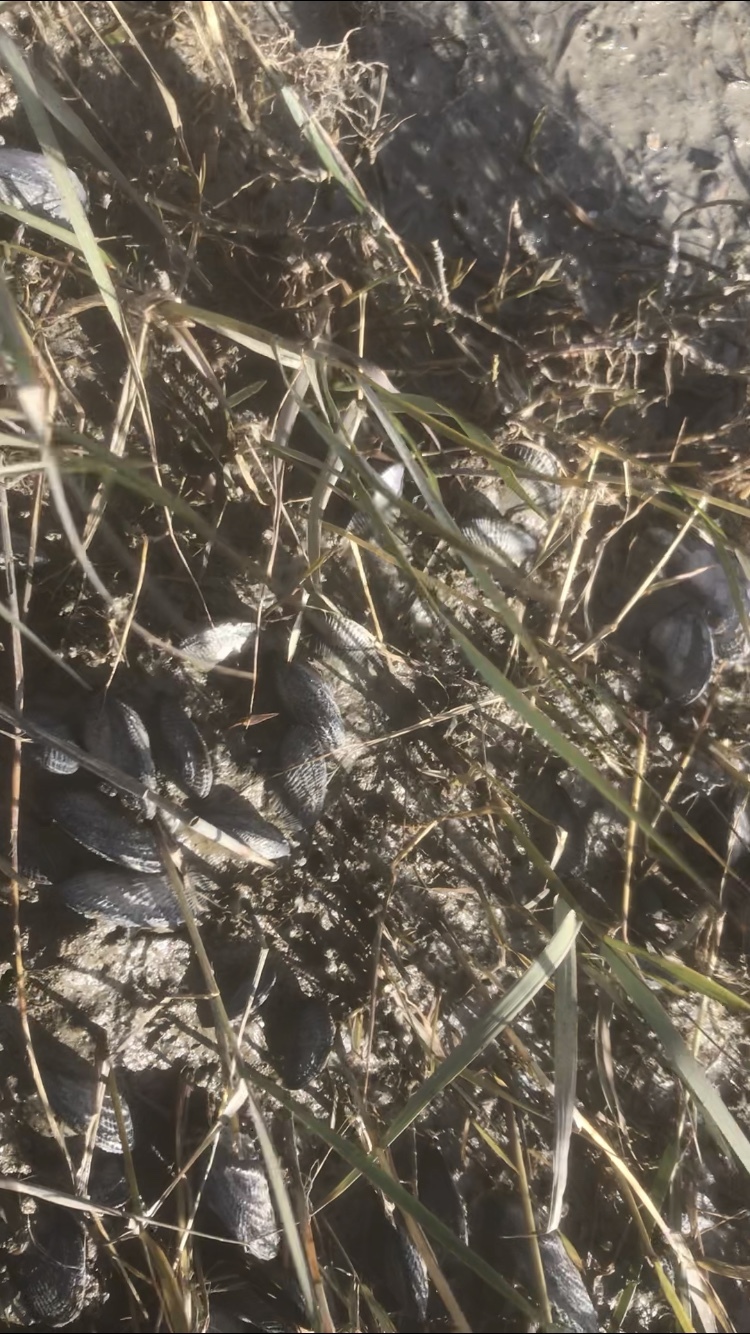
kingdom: Animalia
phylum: Mollusca
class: Bivalvia
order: Mytilida
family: Mytilidae
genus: Geukensia
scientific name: Geukensia demissa
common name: Ribbed mussel
